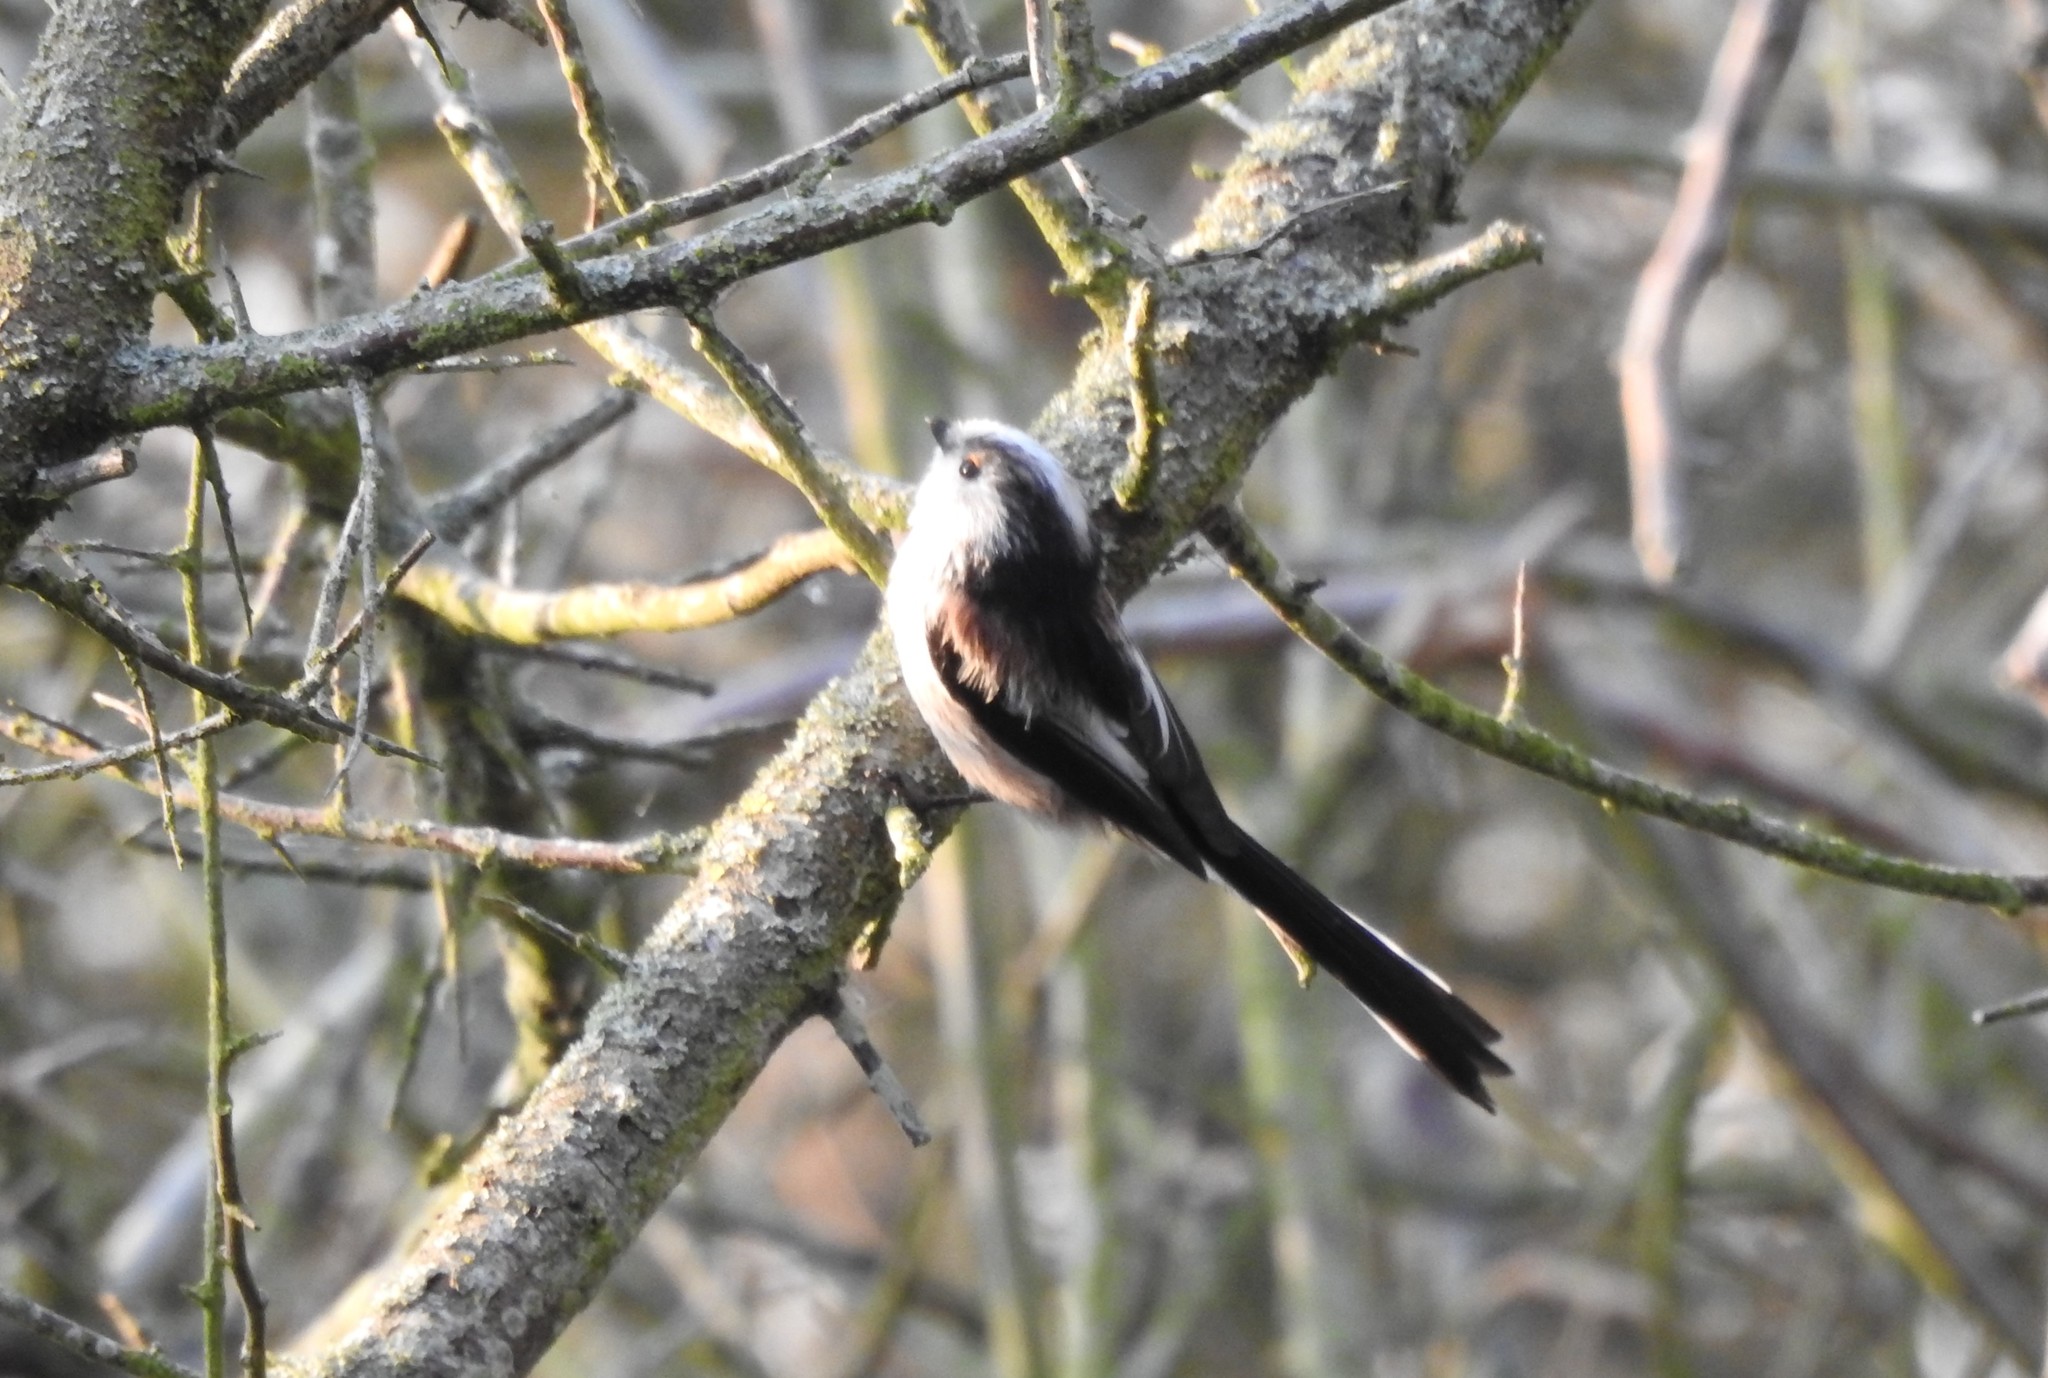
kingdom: Animalia
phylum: Chordata
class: Aves
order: Passeriformes
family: Aegithalidae
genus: Aegithalos
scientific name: Aegithalos caudatus
